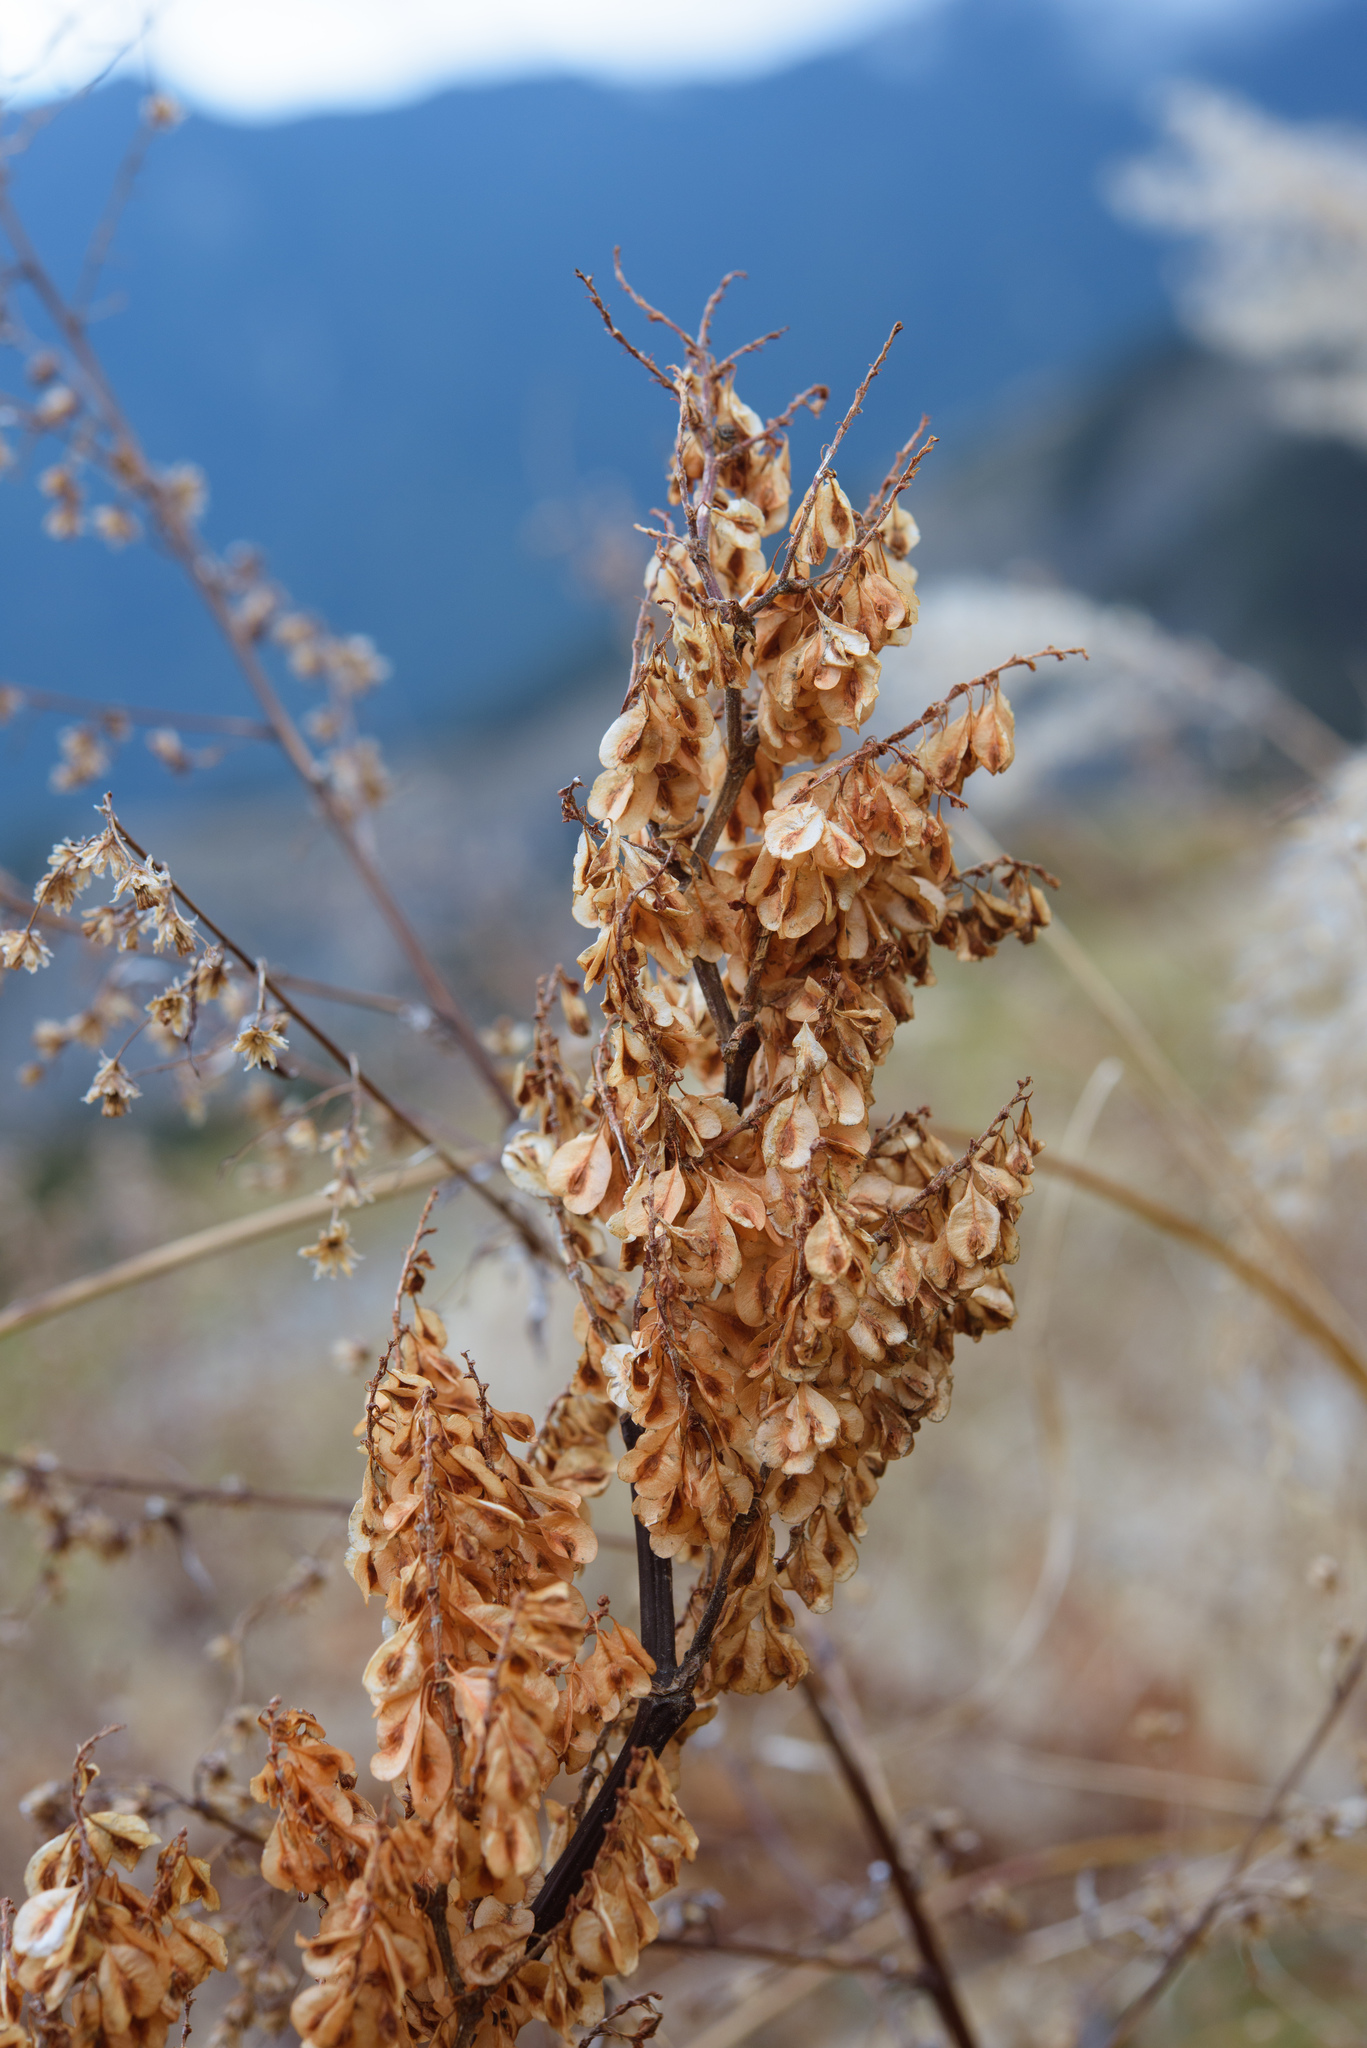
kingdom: Plantae
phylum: Tracheophyta
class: Magnoliopsida
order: Caryophyllales
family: Polygonaceae
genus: Reynoutria
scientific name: Reynoutria japonica
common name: Japanese knotweed
